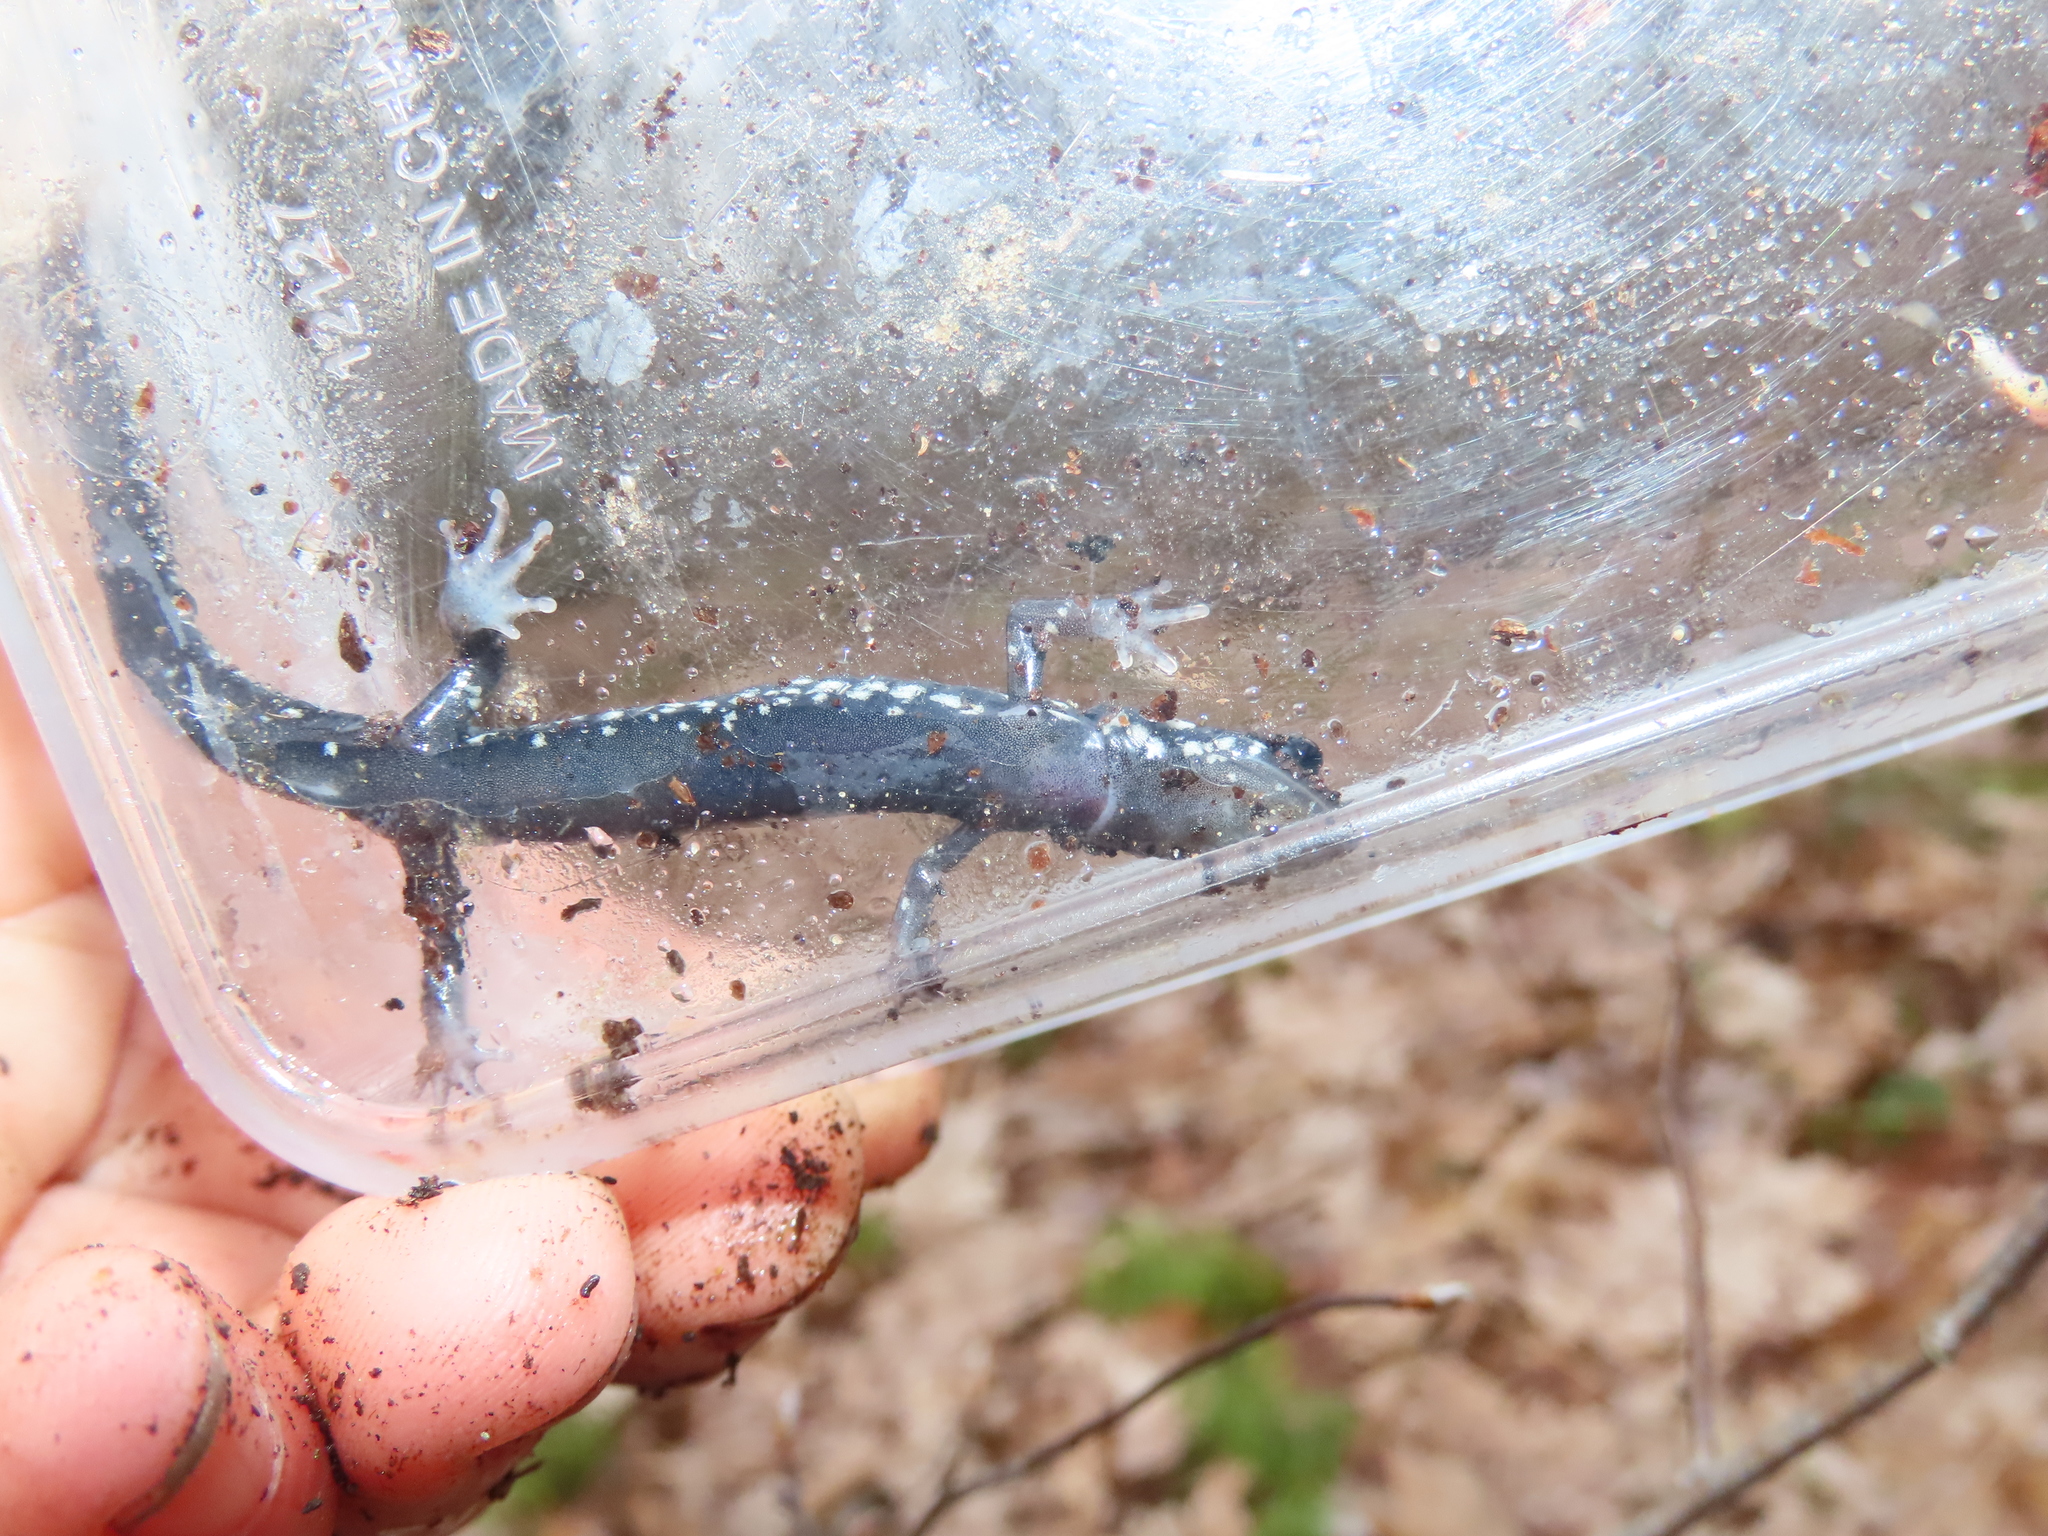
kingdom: Animalia
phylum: Chordata
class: Amphibia
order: Caudata
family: Plethodontidae
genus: Plethodon
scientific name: Plethodon glutinosus
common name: Northern slimy salamander
